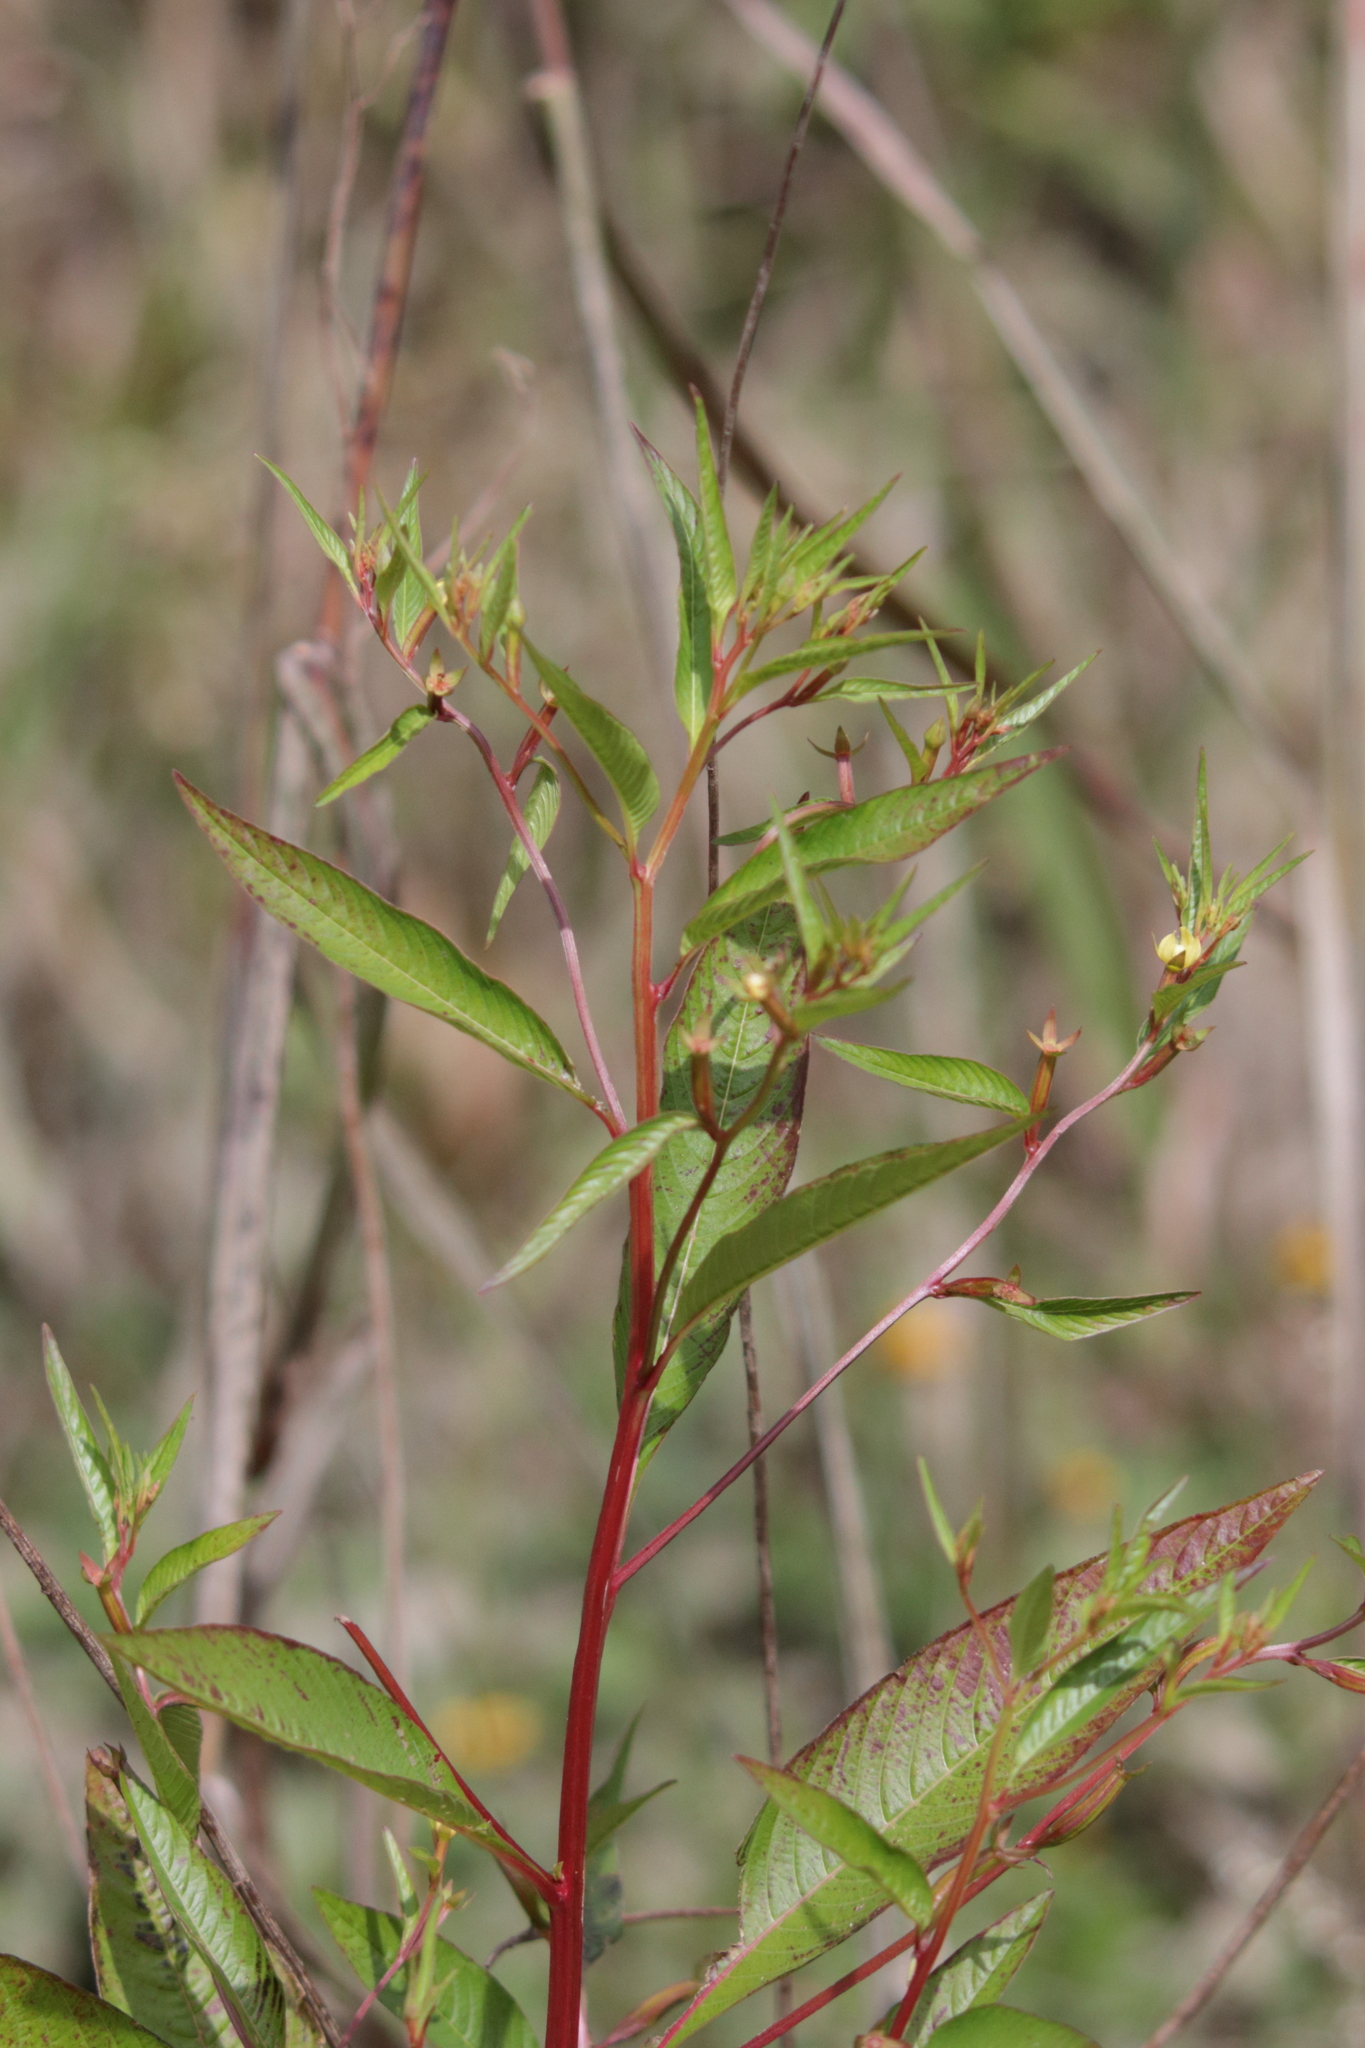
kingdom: Plantae
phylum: Tracheophyta
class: Magnoliopsida
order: Myrtales
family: Onagraceae
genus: Ludwigia
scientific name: Ludwigia decurrens
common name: Winged water-primrose
